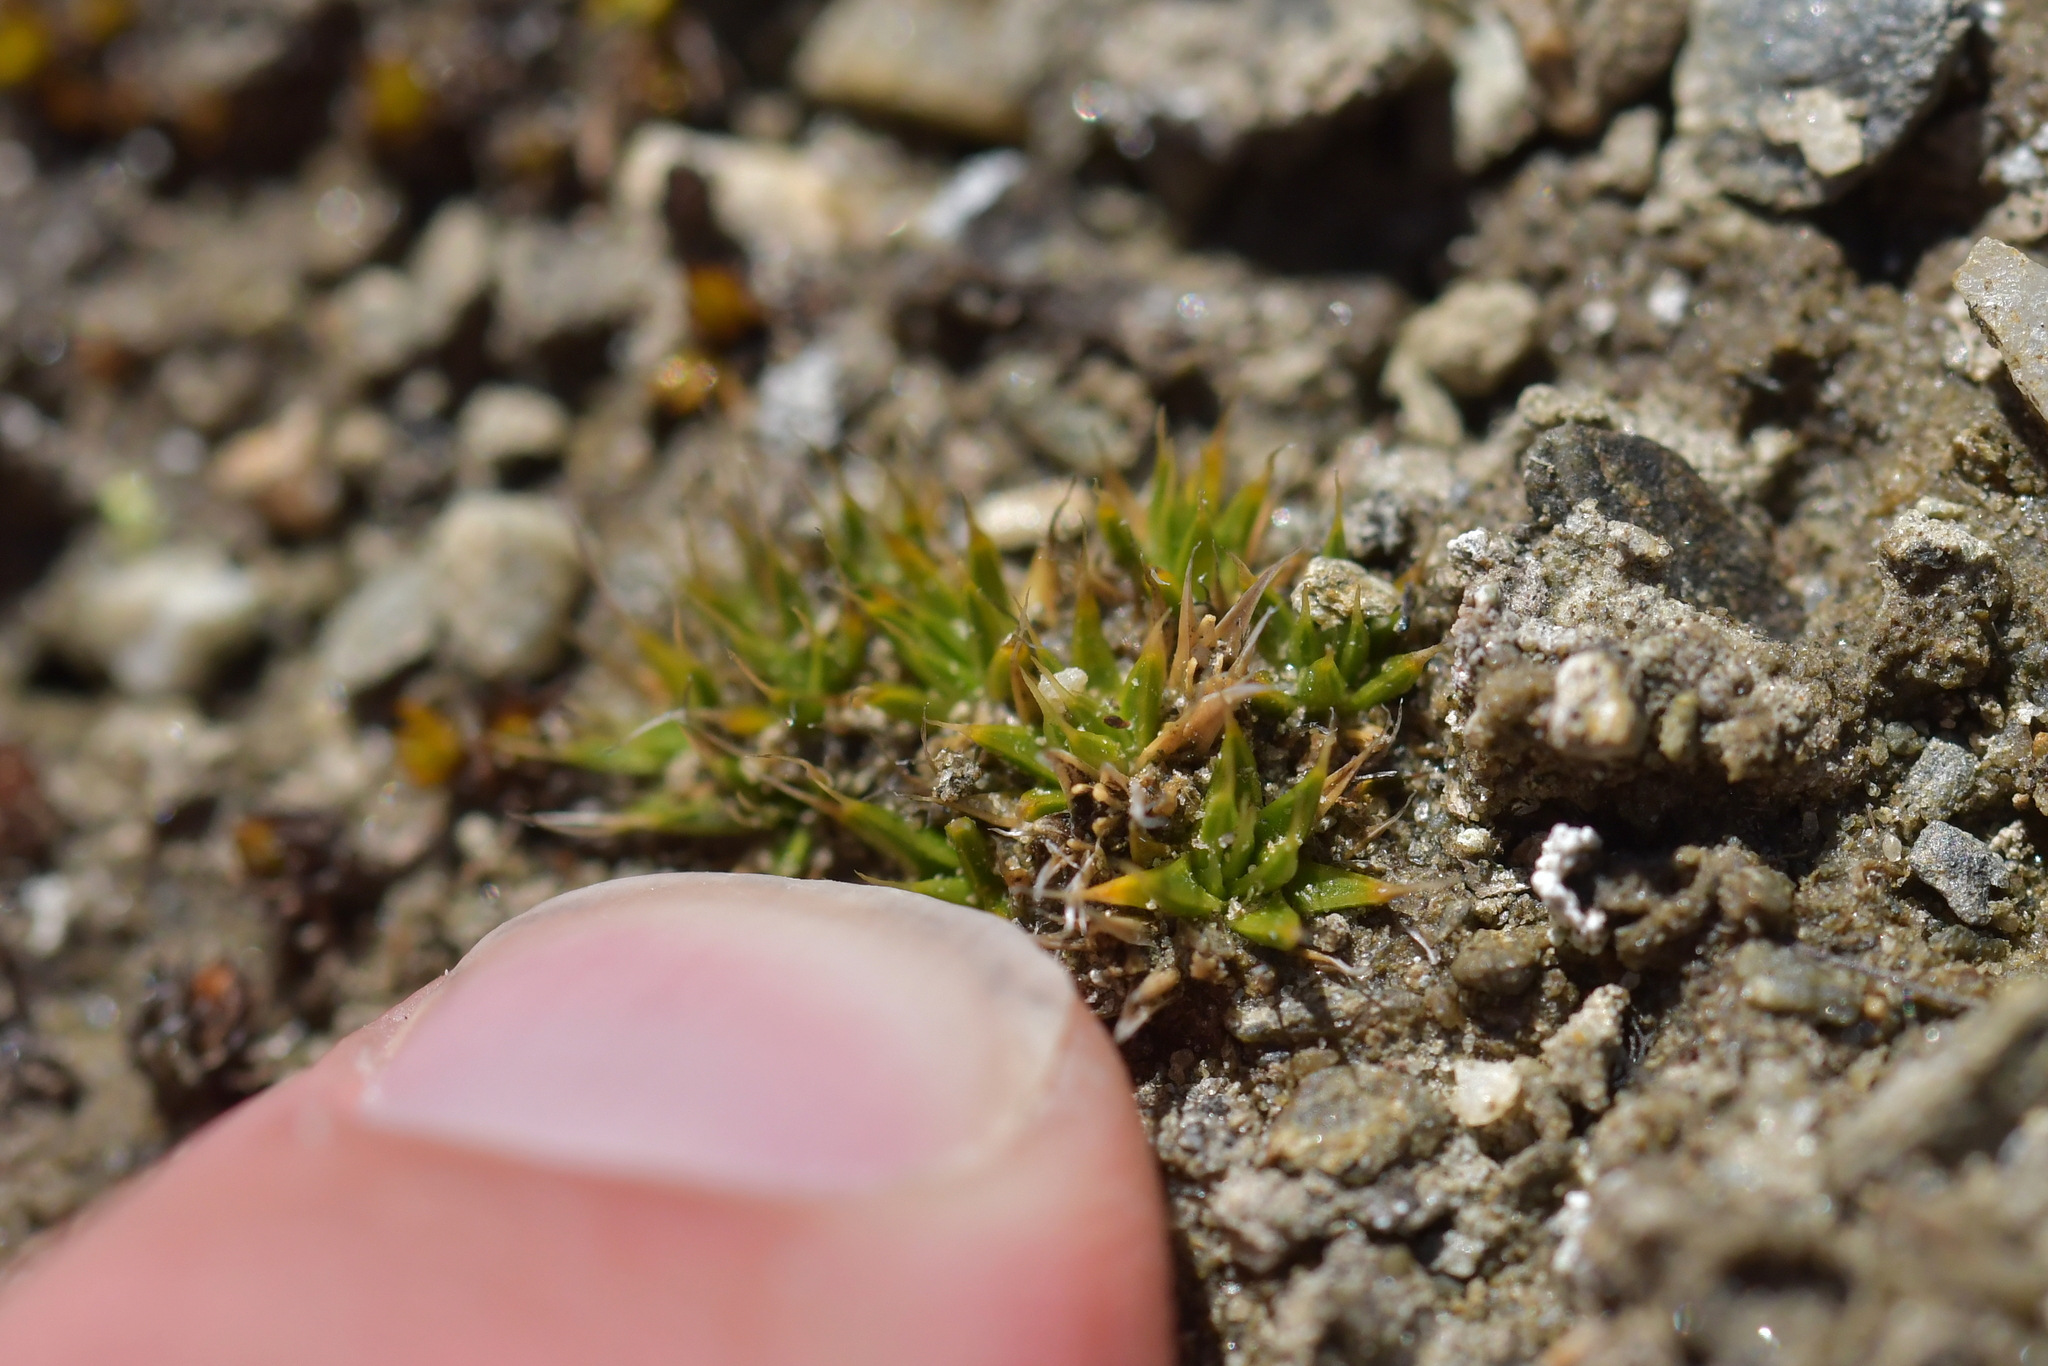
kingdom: Plantae
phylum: Tracheophyta
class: Magnoliopsida
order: Caryophyllales
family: Caryophyllaceae
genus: Colobanthus
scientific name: Colobanthus buchananii
